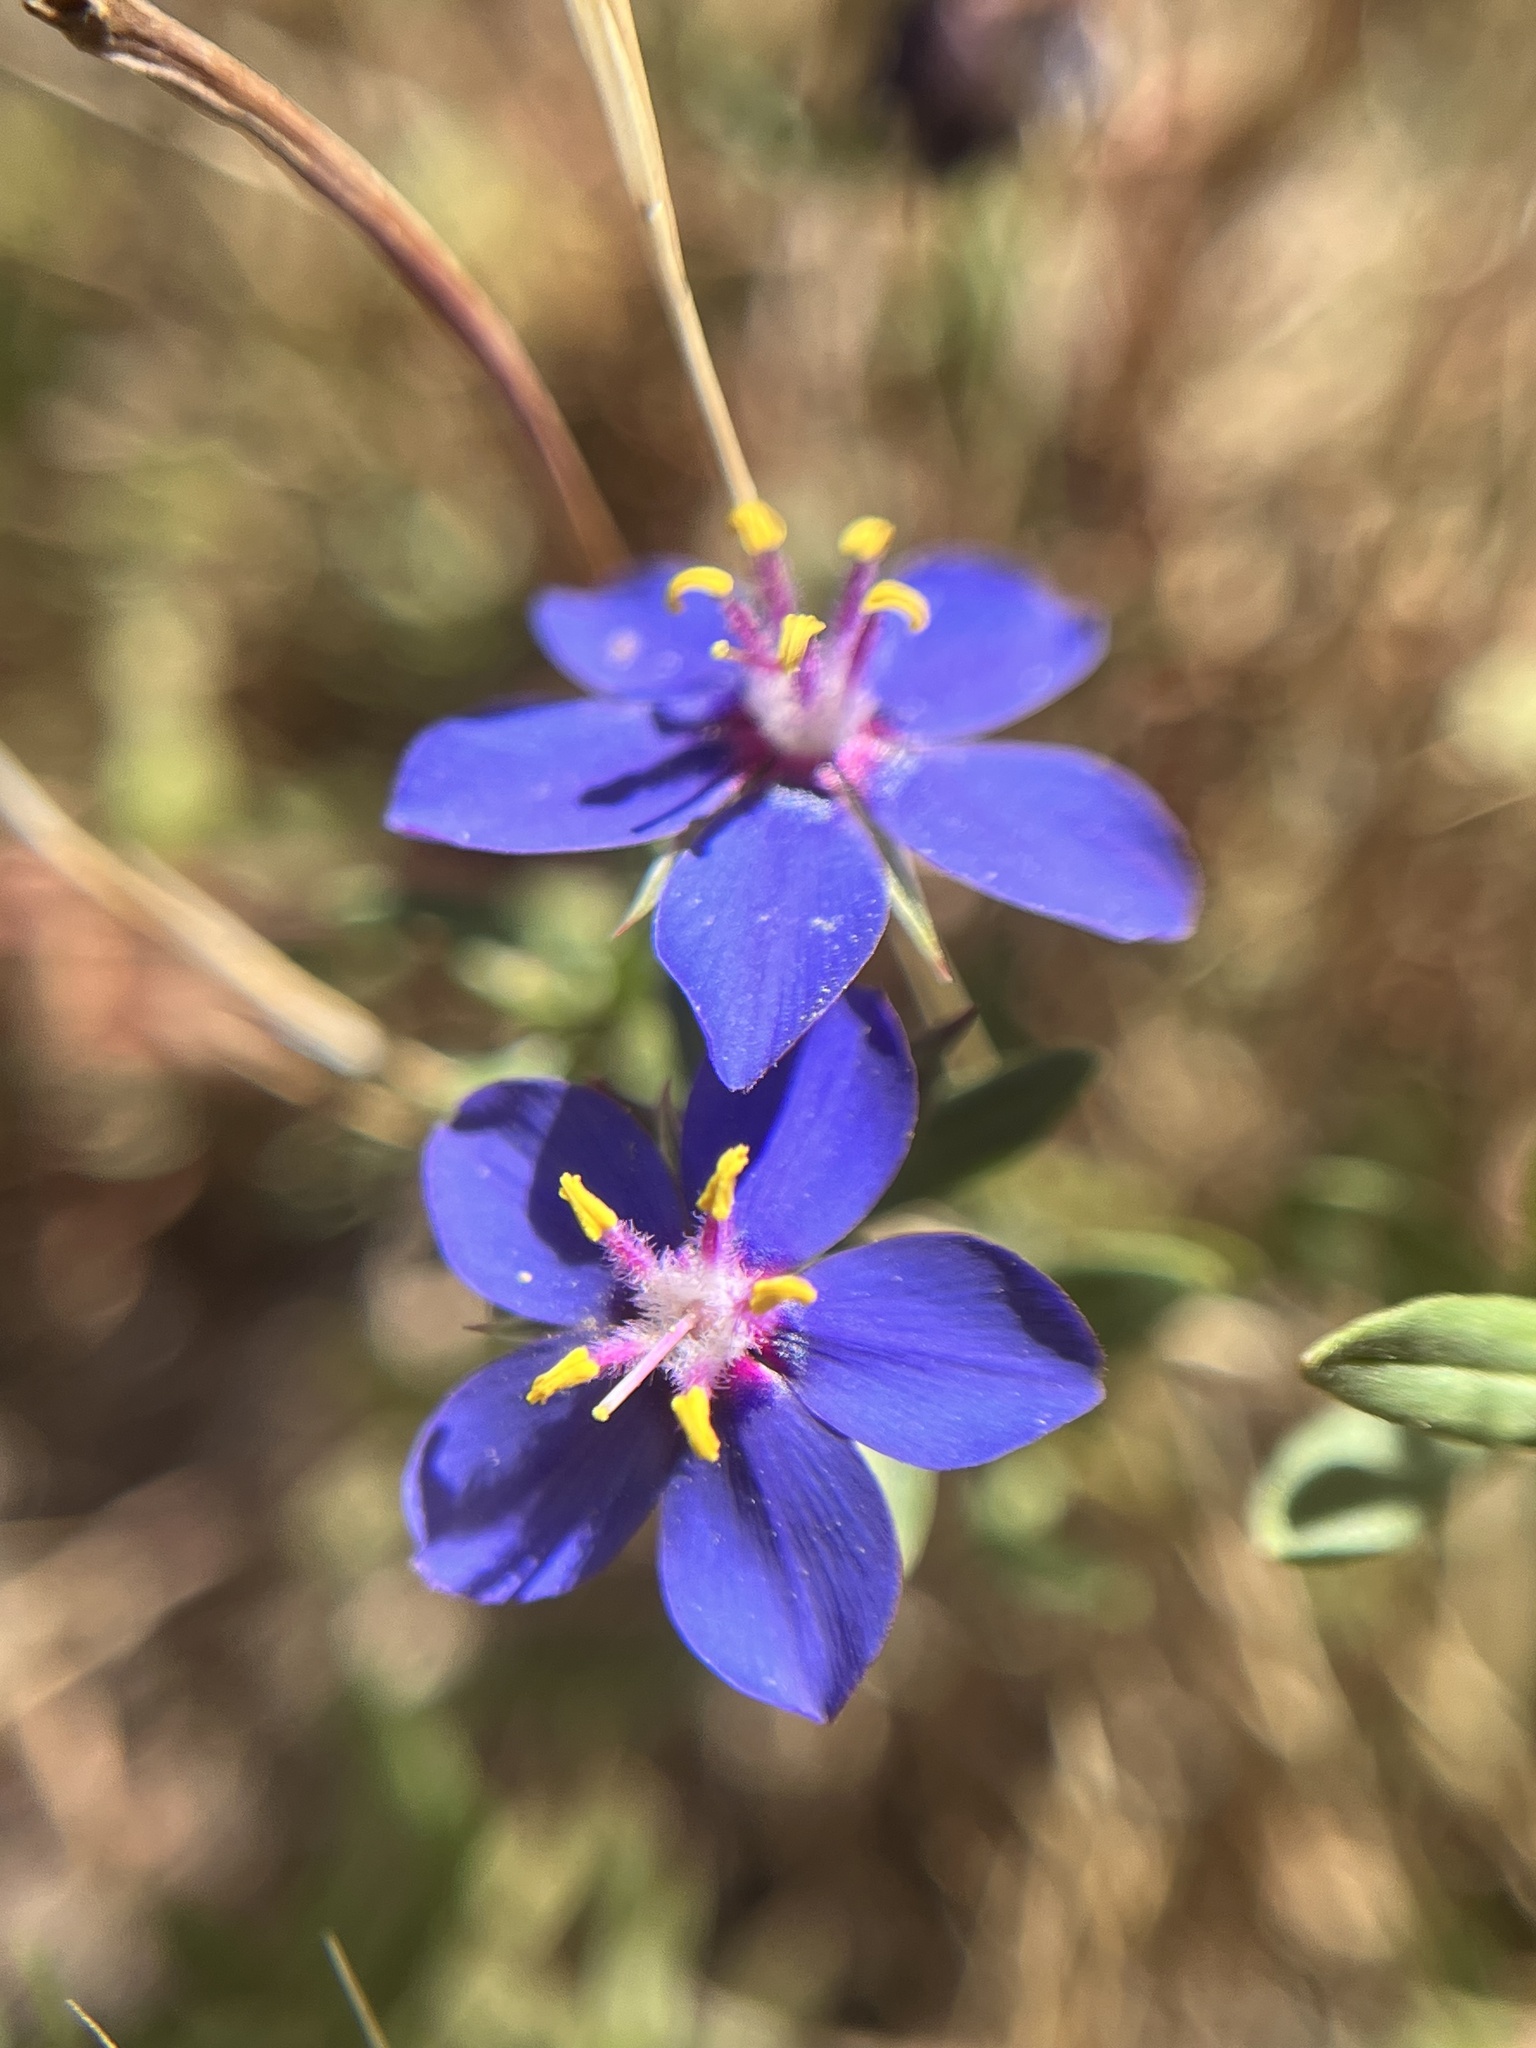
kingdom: Plantae
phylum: Tracheophyta
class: Magnoliopsida
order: Ericales
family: Primulaceae
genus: Lysimachia
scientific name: Lysimachia monelli
